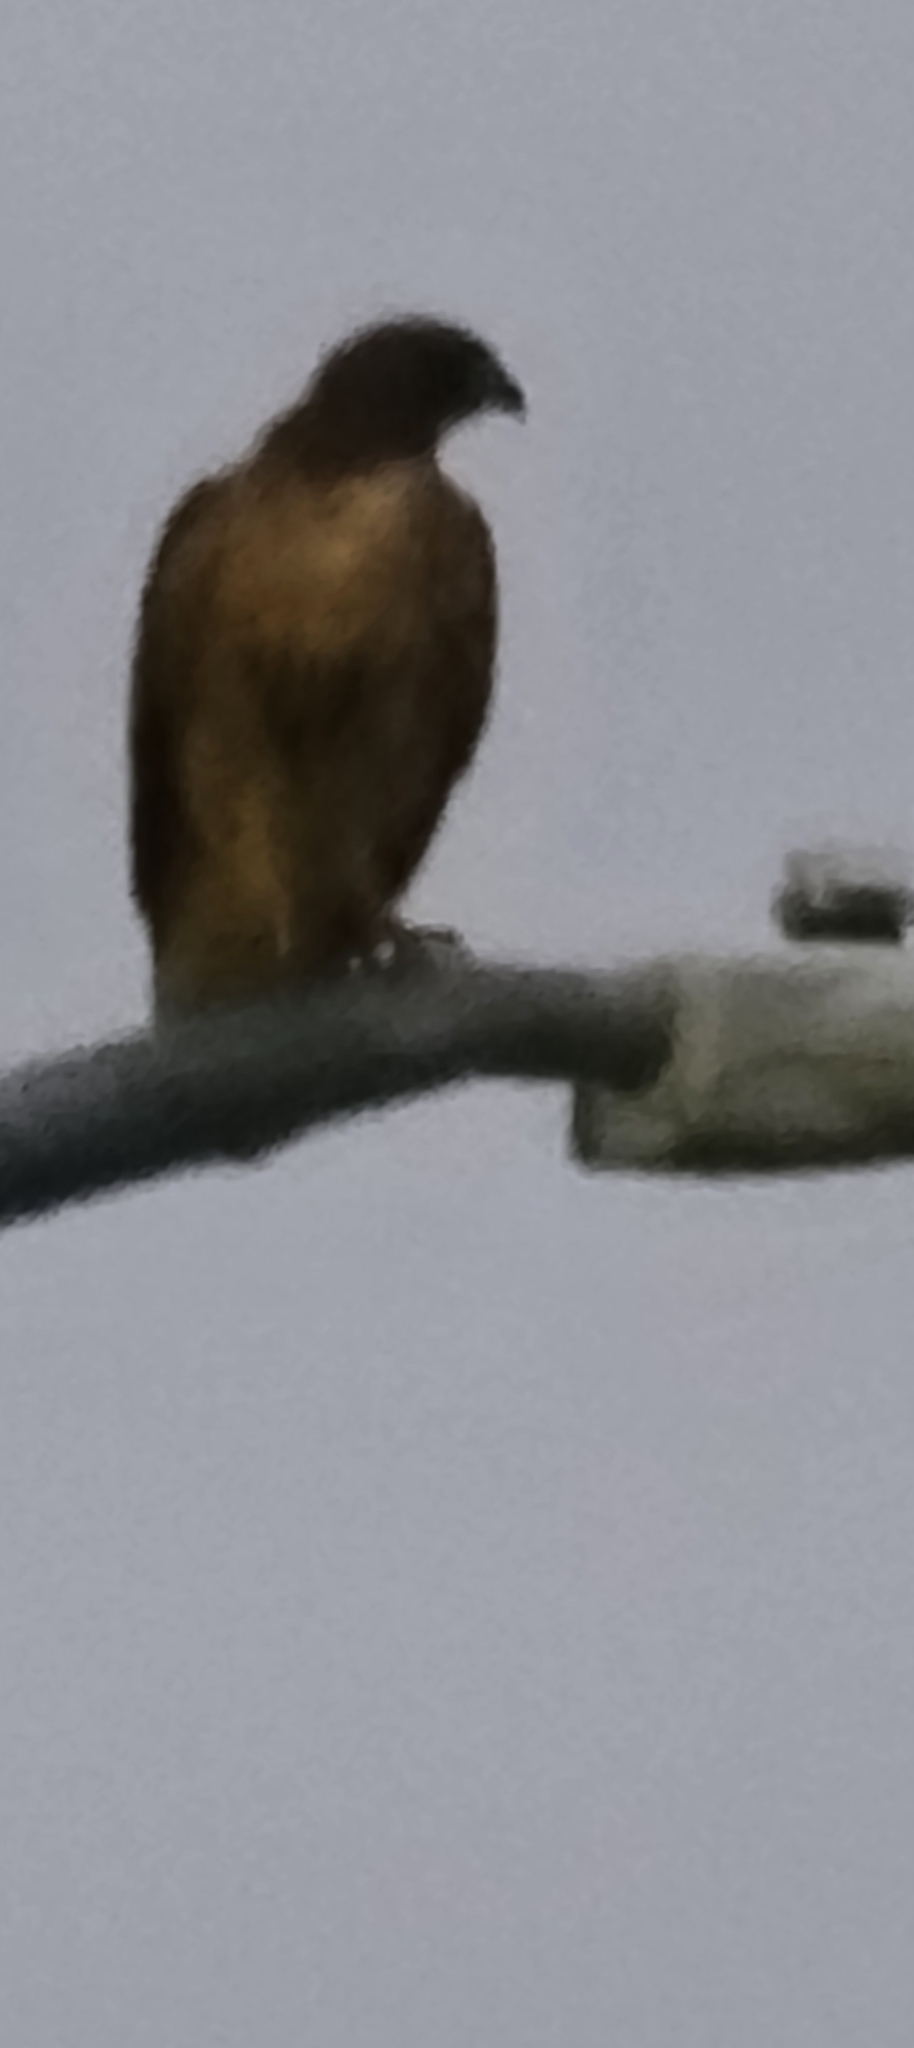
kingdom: Animalia
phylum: Chordata
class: Aves
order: Accipitriformes
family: Accipitridae
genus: Buteo
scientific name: Buteo jamaicensis
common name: Red-tailed hawk
